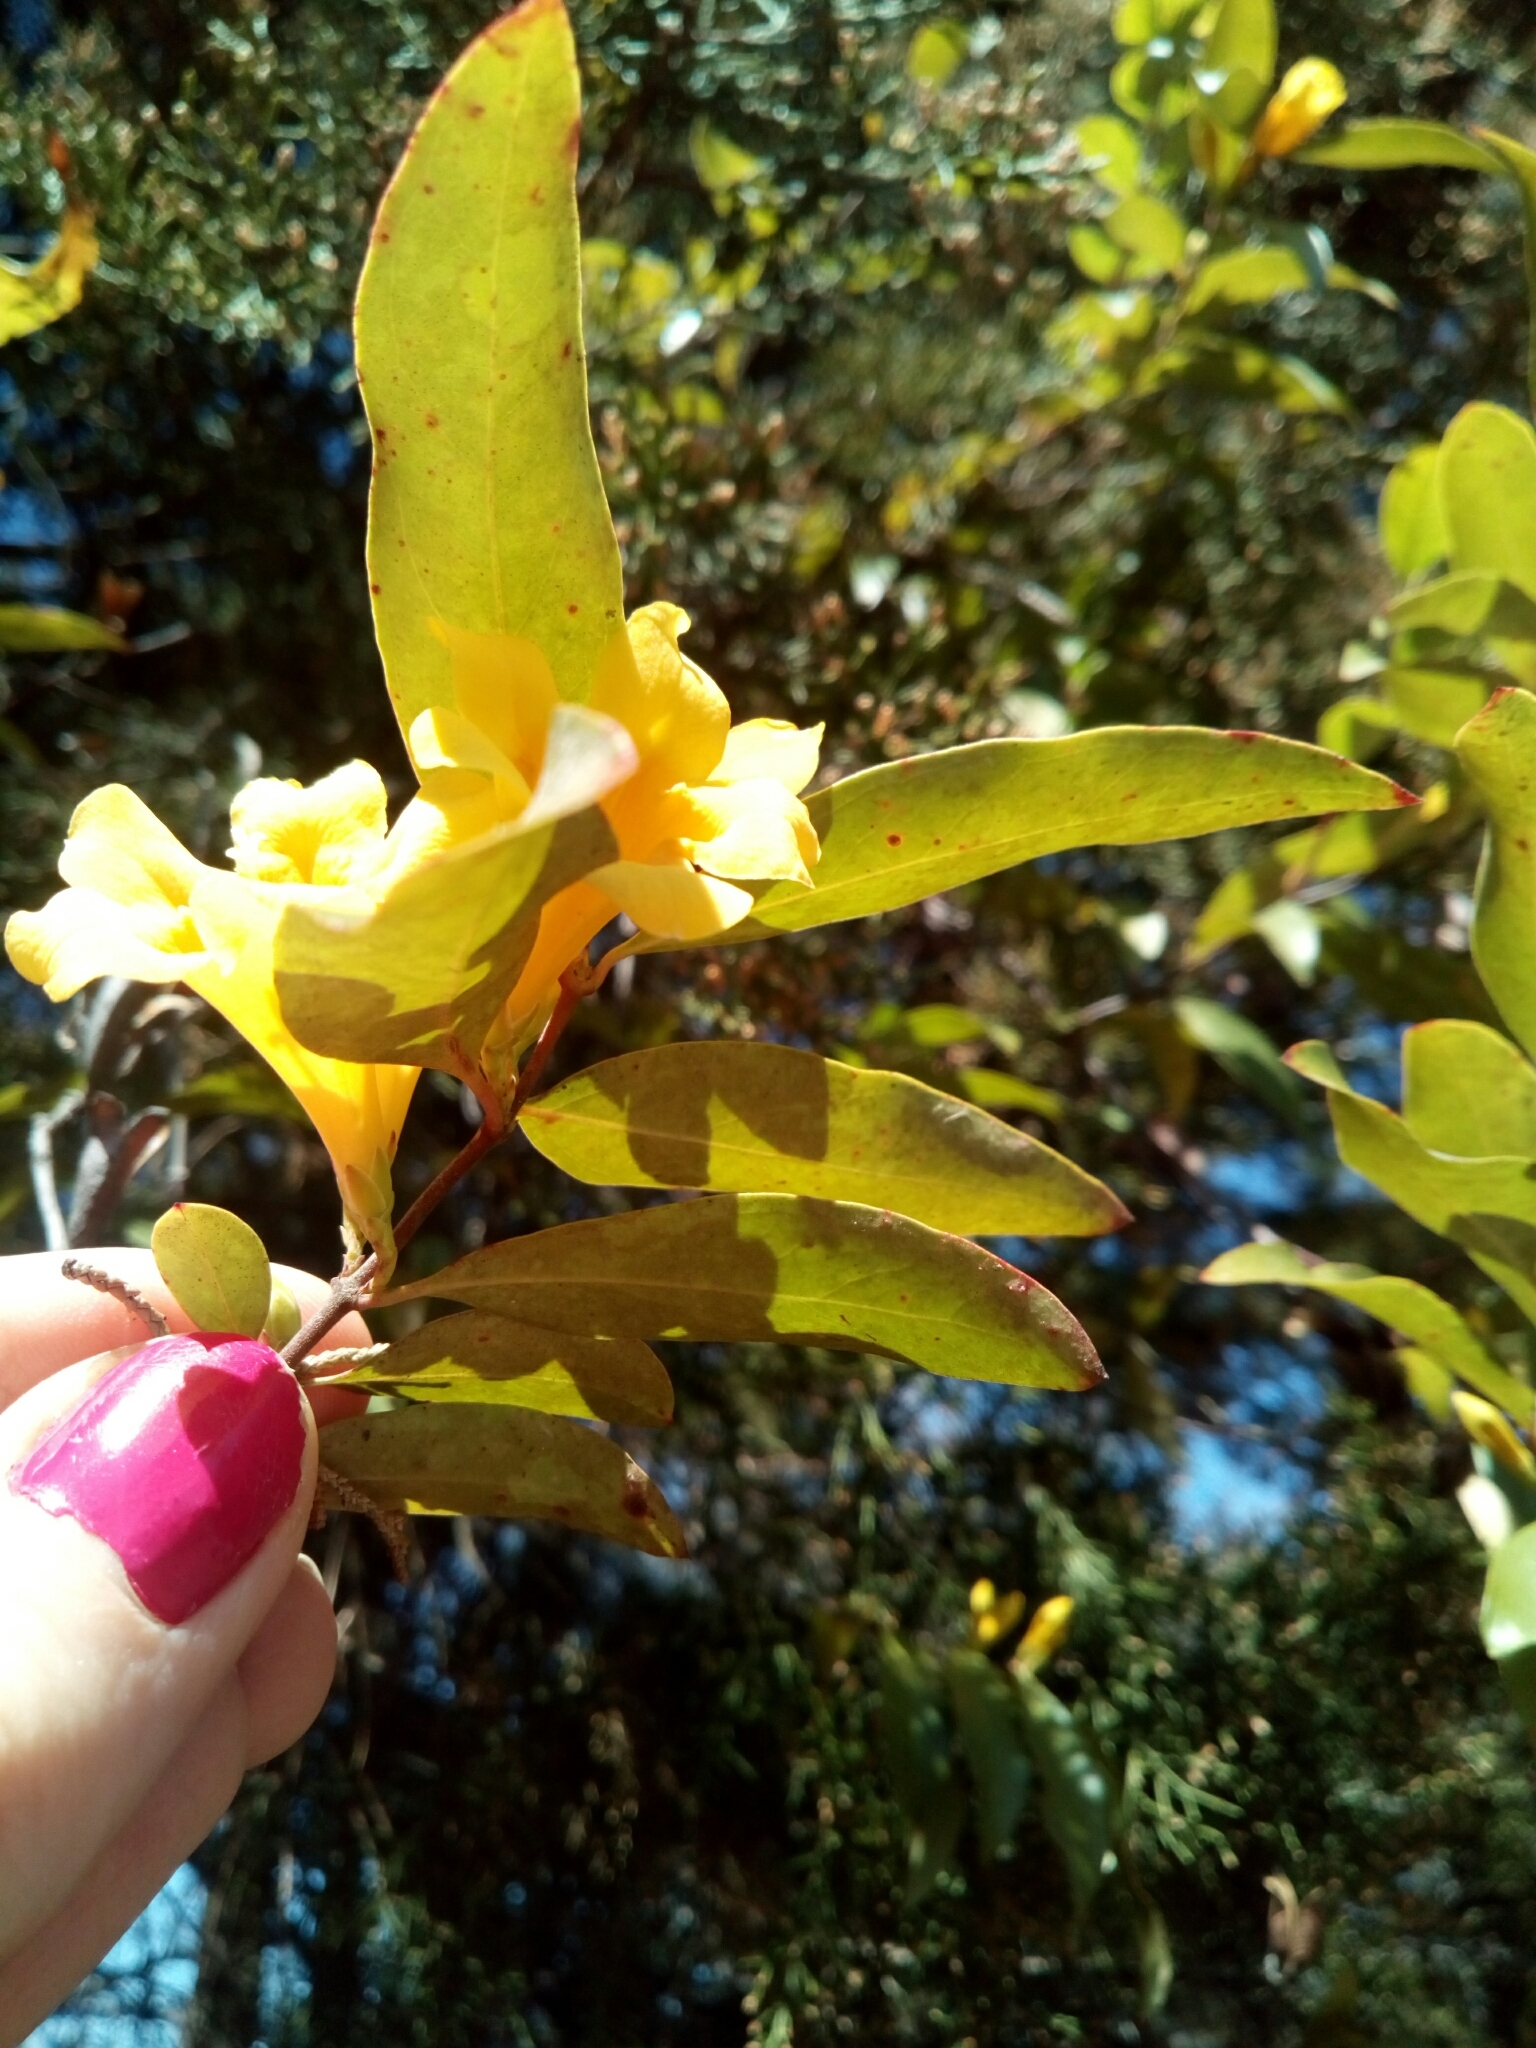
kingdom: Plantae
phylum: Tracheophyta
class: Magnoliopsida
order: Gentianales
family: Gelsemiaceae
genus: Gelsemium
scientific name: Gelsemium sempervirens
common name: Carolina-jasmine
